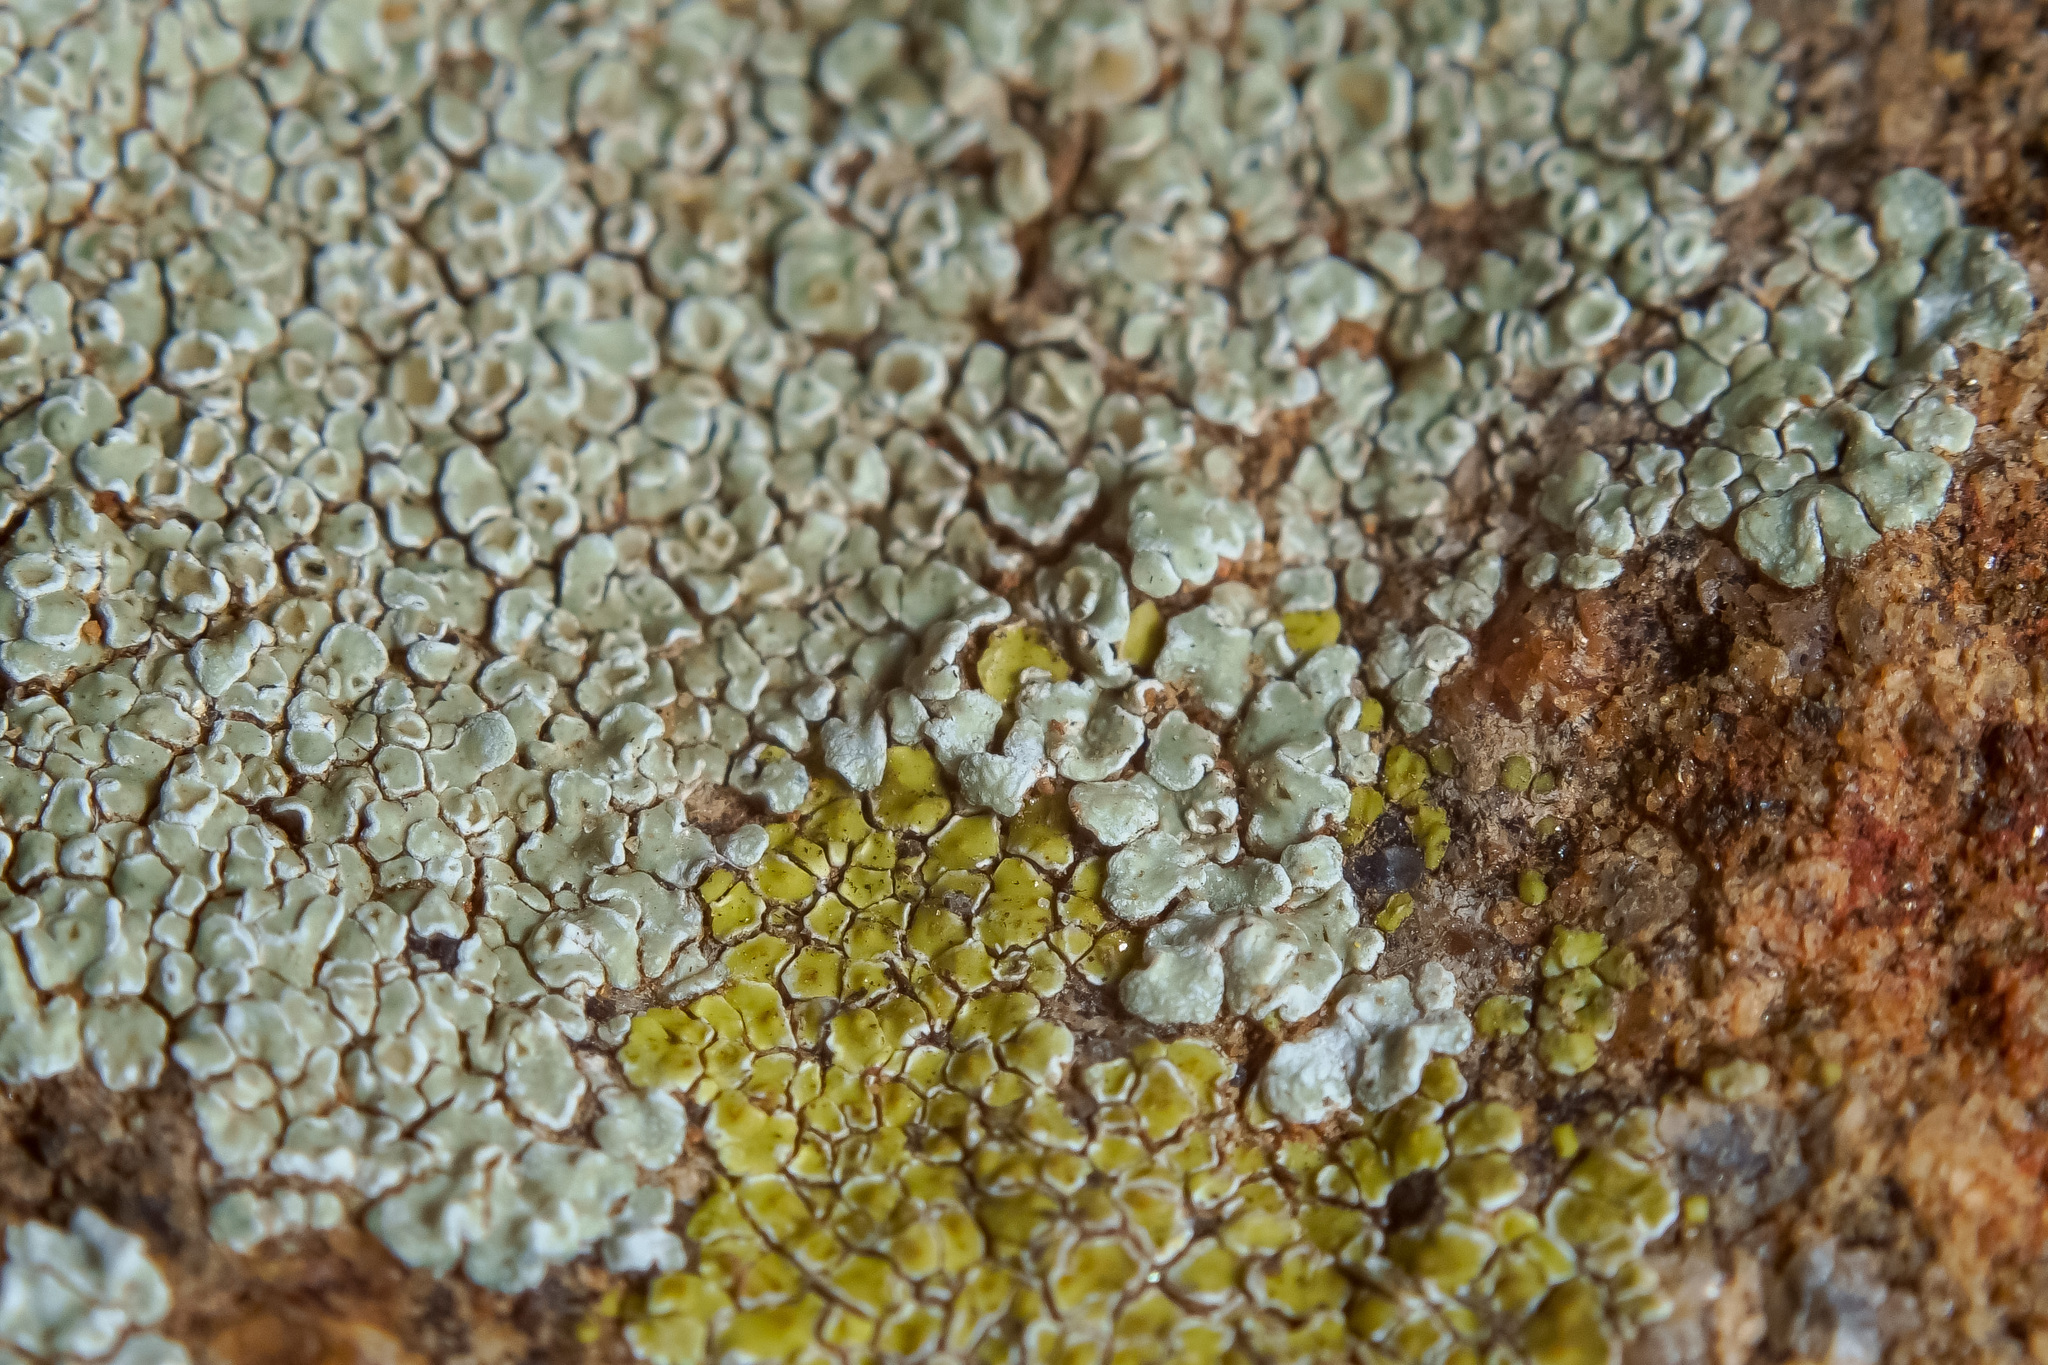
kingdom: Fungi
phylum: Ascomycota
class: Lecanoromycetes
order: Lecanorales
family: Lecanoraceae
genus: Protoparmeliopsis
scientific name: Protoparmeliopsis muralis
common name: Stonewall rim lichen
